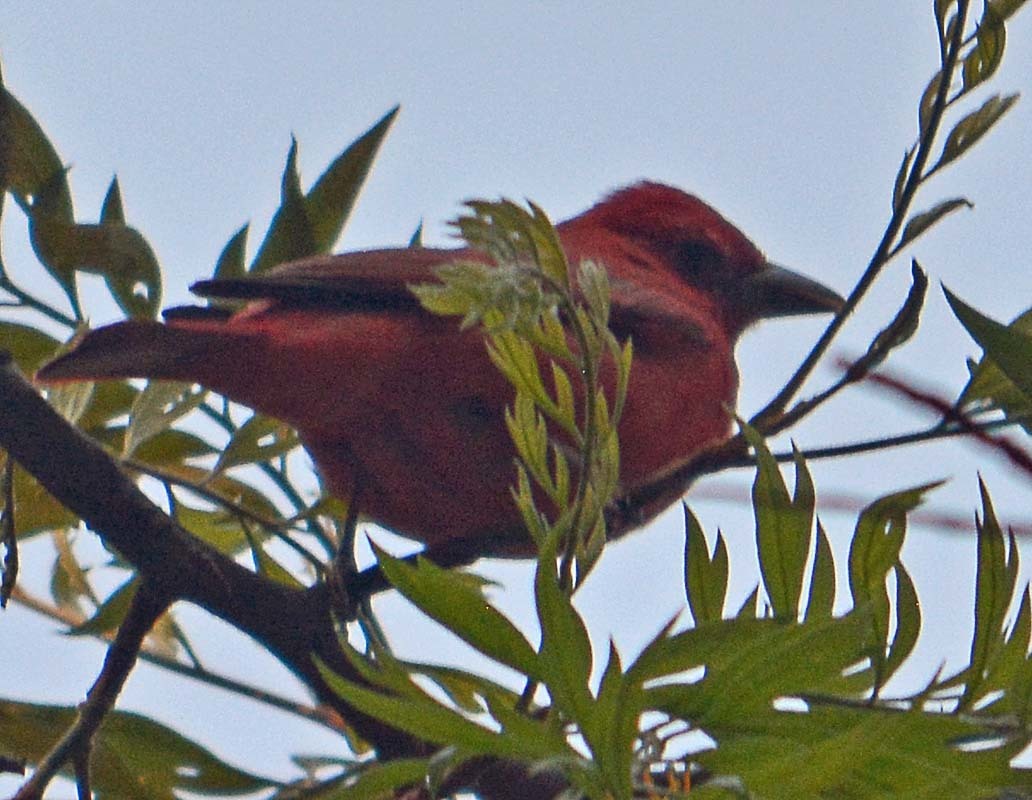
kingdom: Animalia
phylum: Chordata
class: Aves
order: Passeriformes
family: Cardinalidae
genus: Piranga
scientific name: Piranga flava
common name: Red tanager
